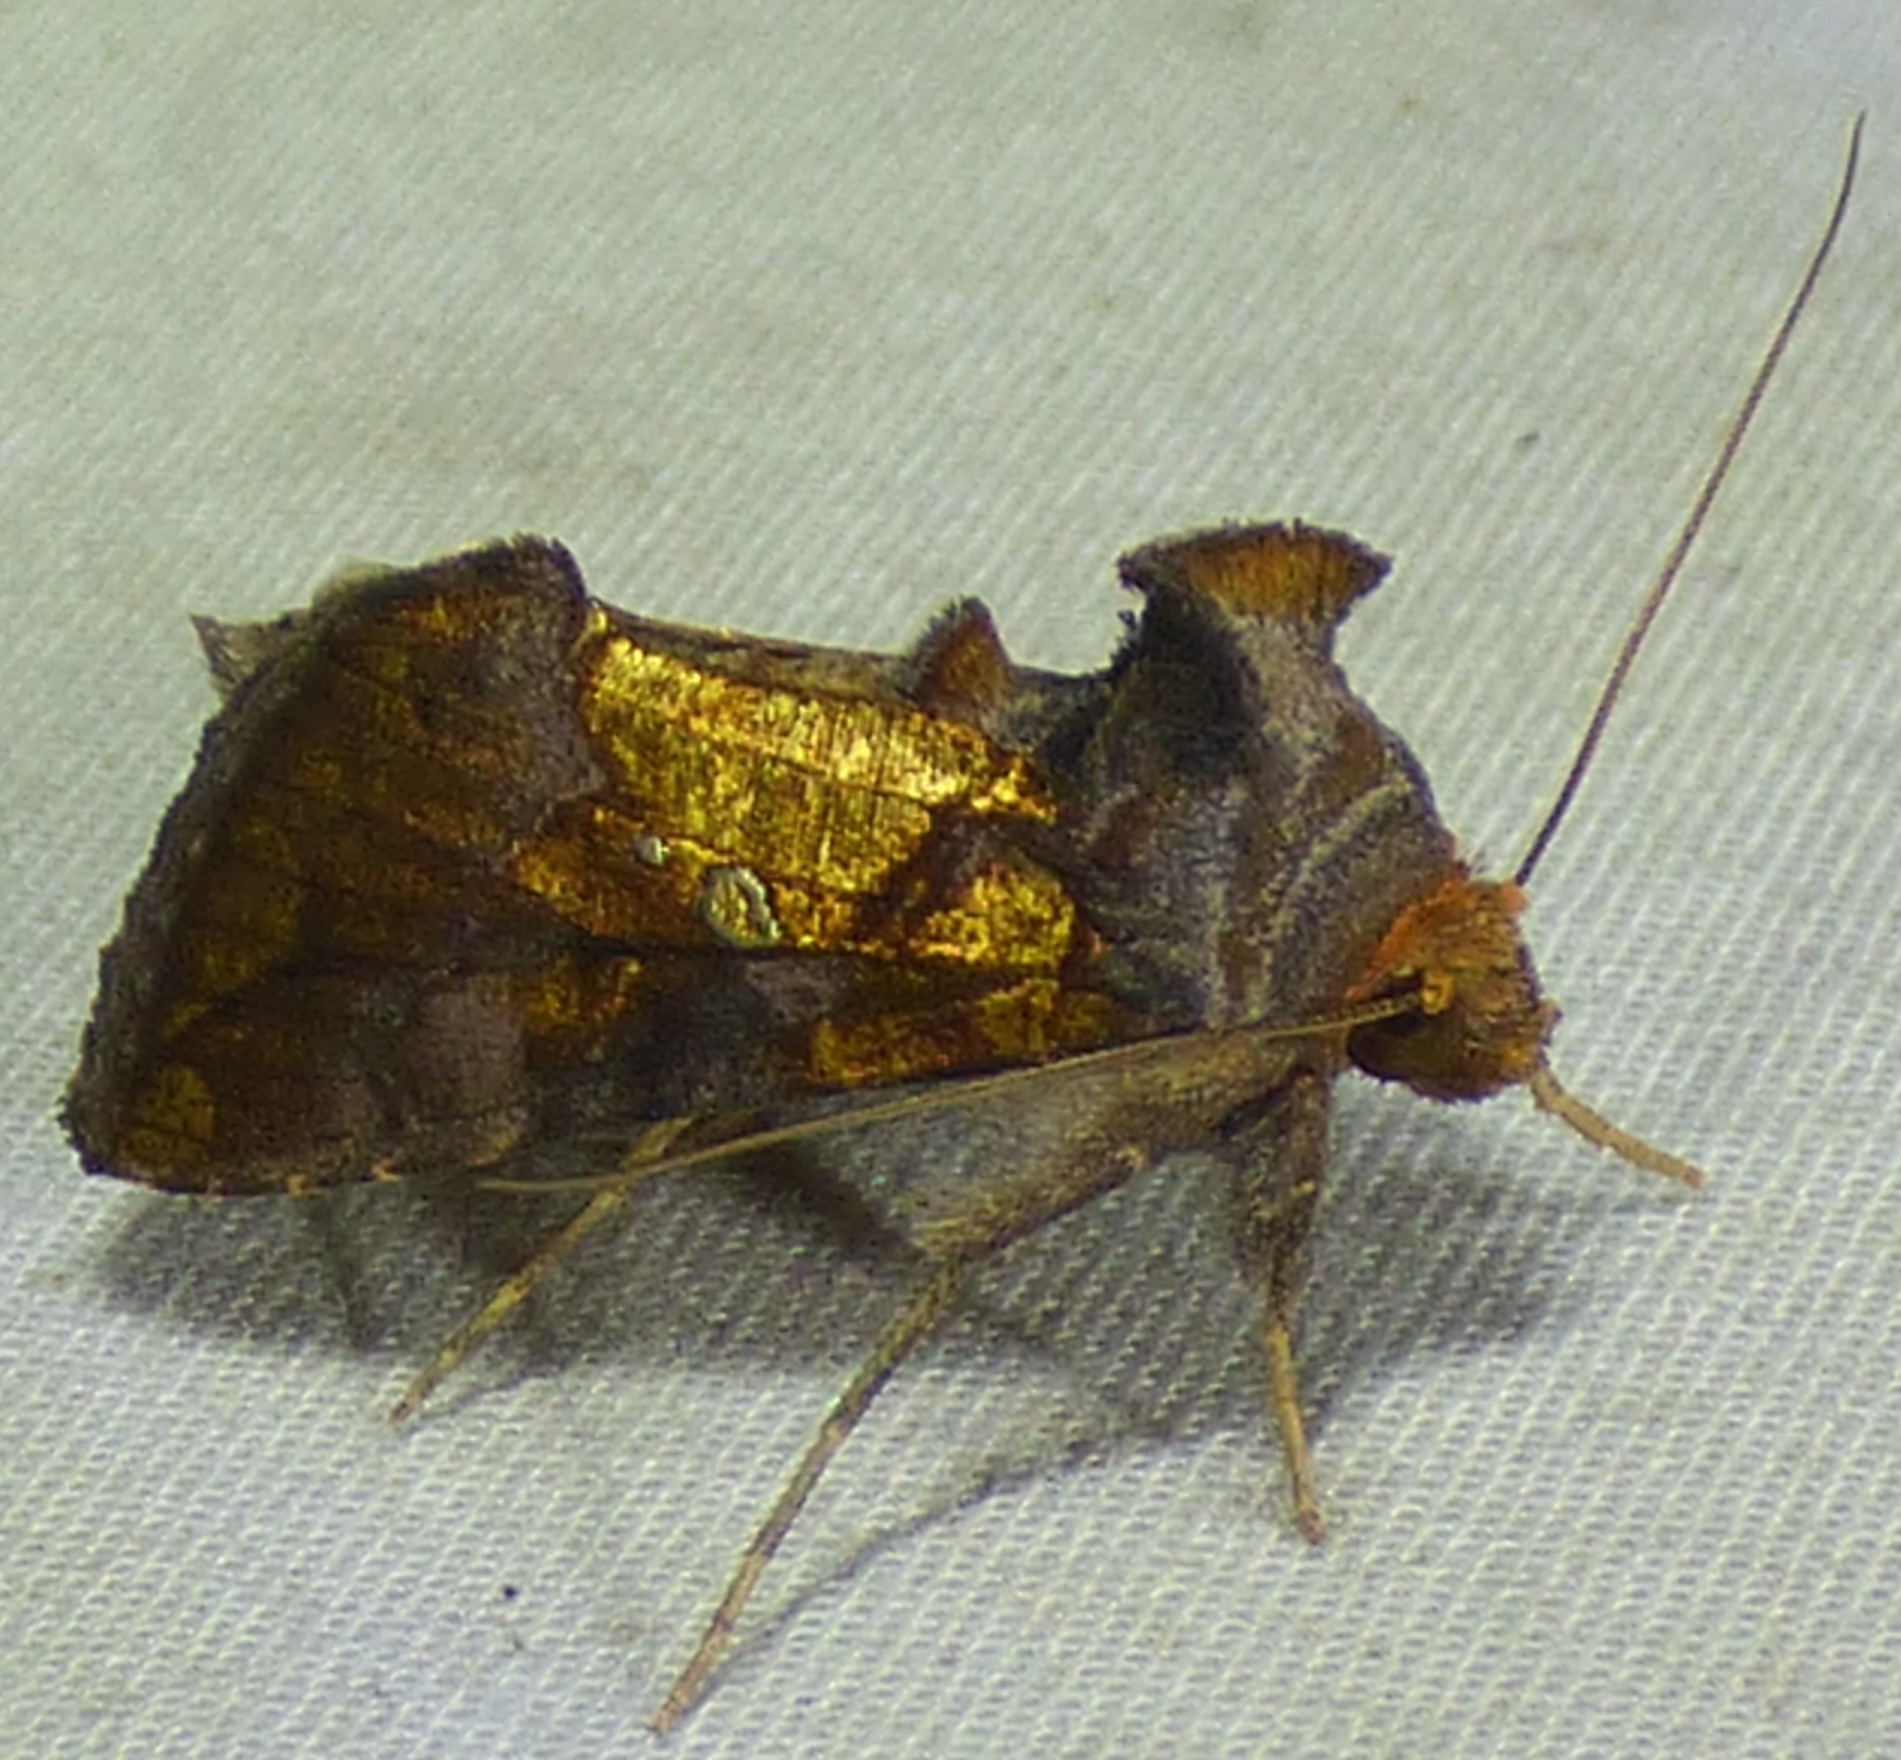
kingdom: Animalia
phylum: Arthropoda
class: Insecta
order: Lepidoptera
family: Noctuidae
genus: Argyrogramma
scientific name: Argyrogramma verruca
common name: Golden looper moth
